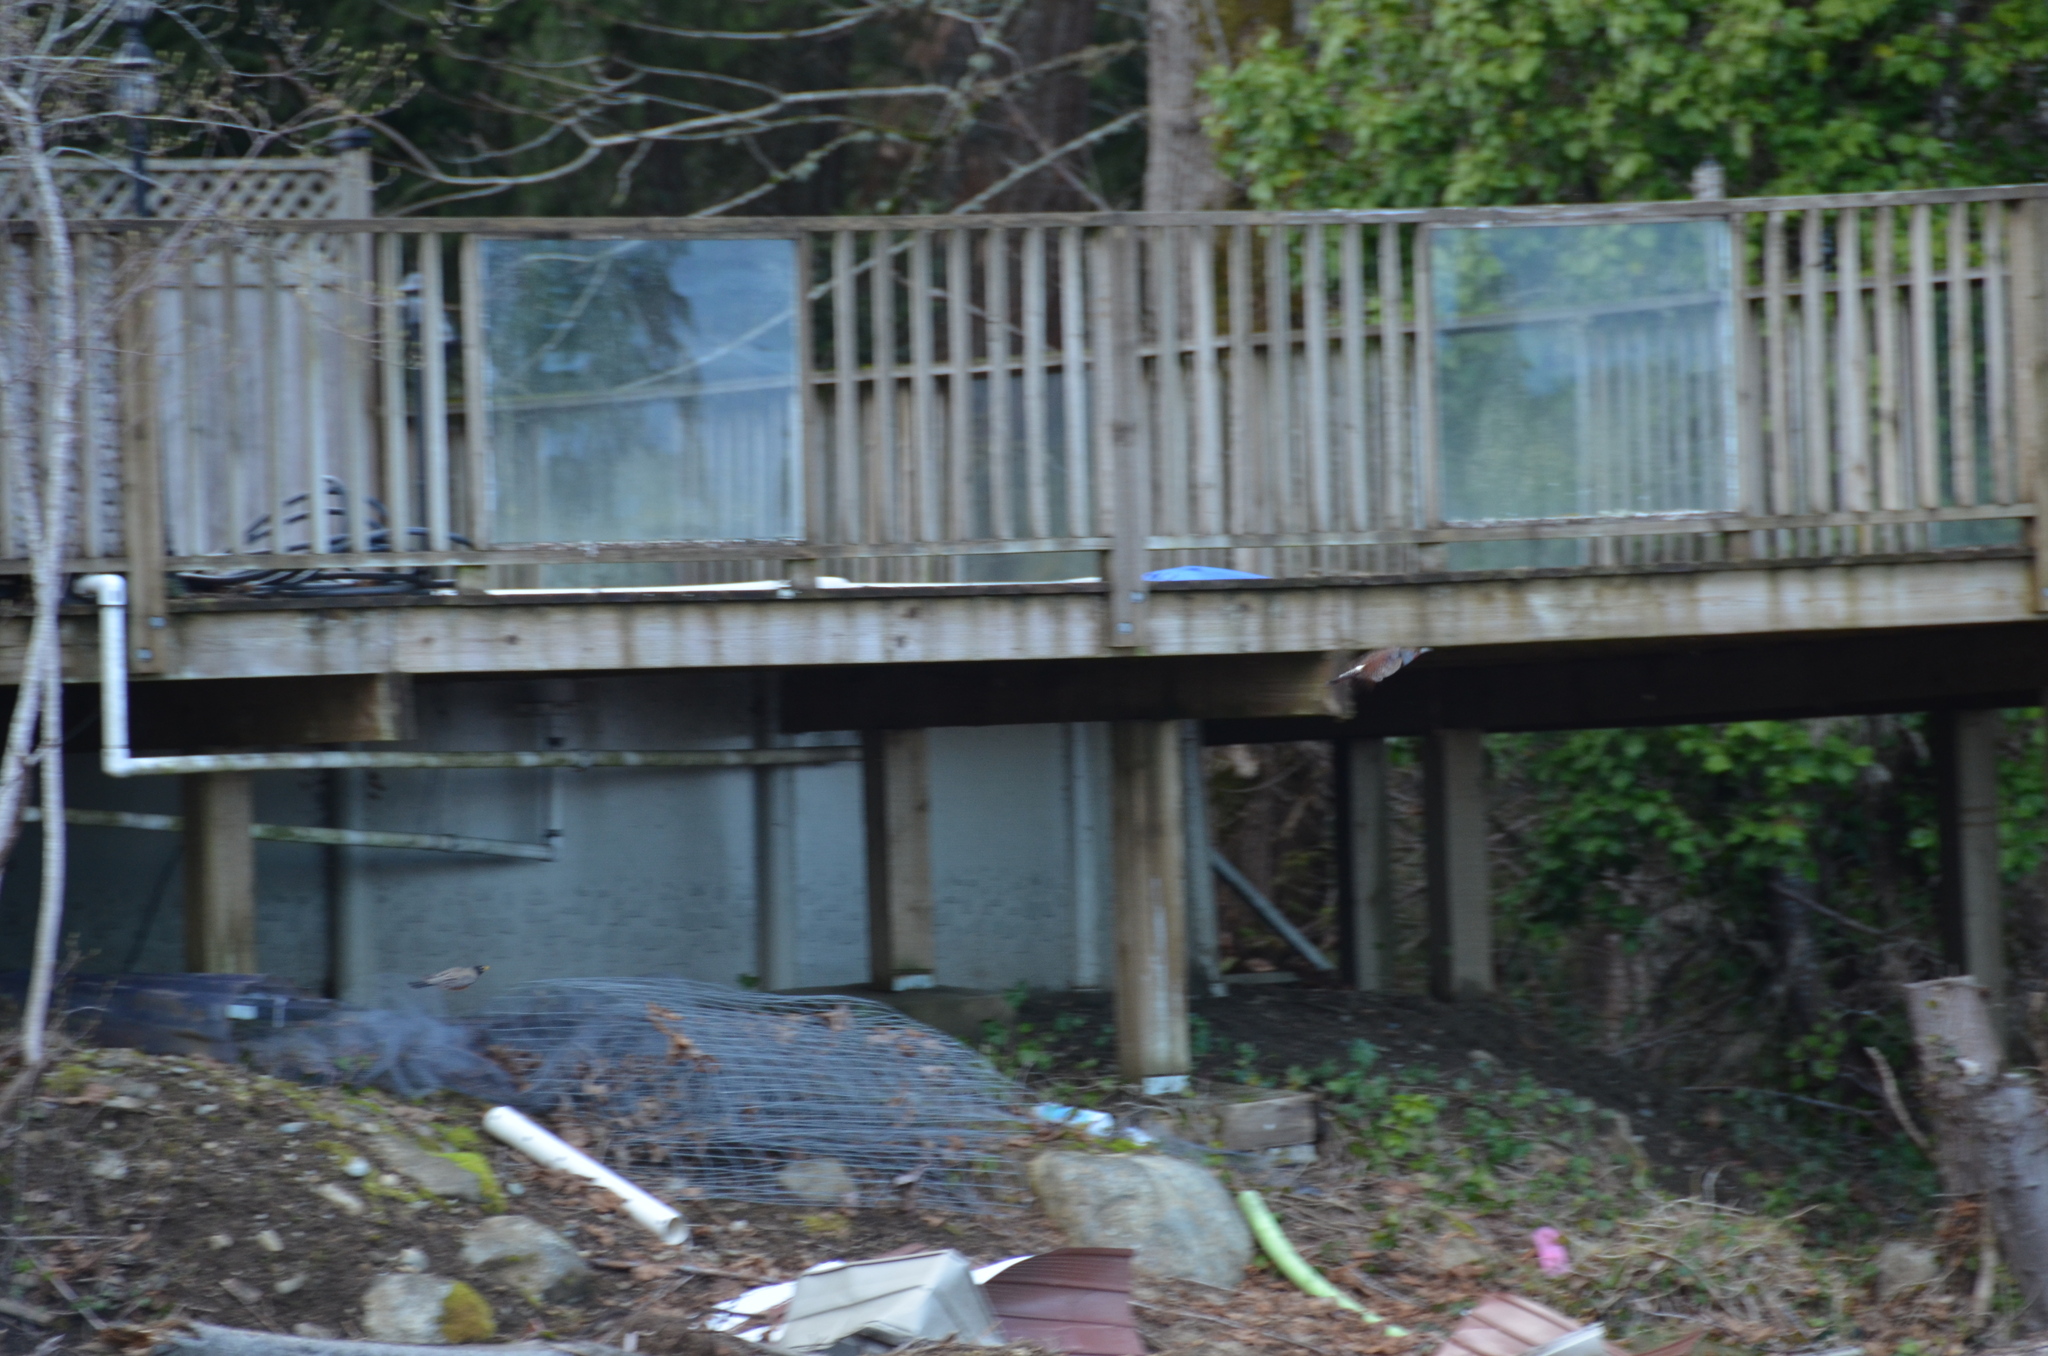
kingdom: Animalia
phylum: Chordata
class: Aves
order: Piciformes
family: Picidae
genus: Colaptes
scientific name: Colaptes auratus
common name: Northern flicker
